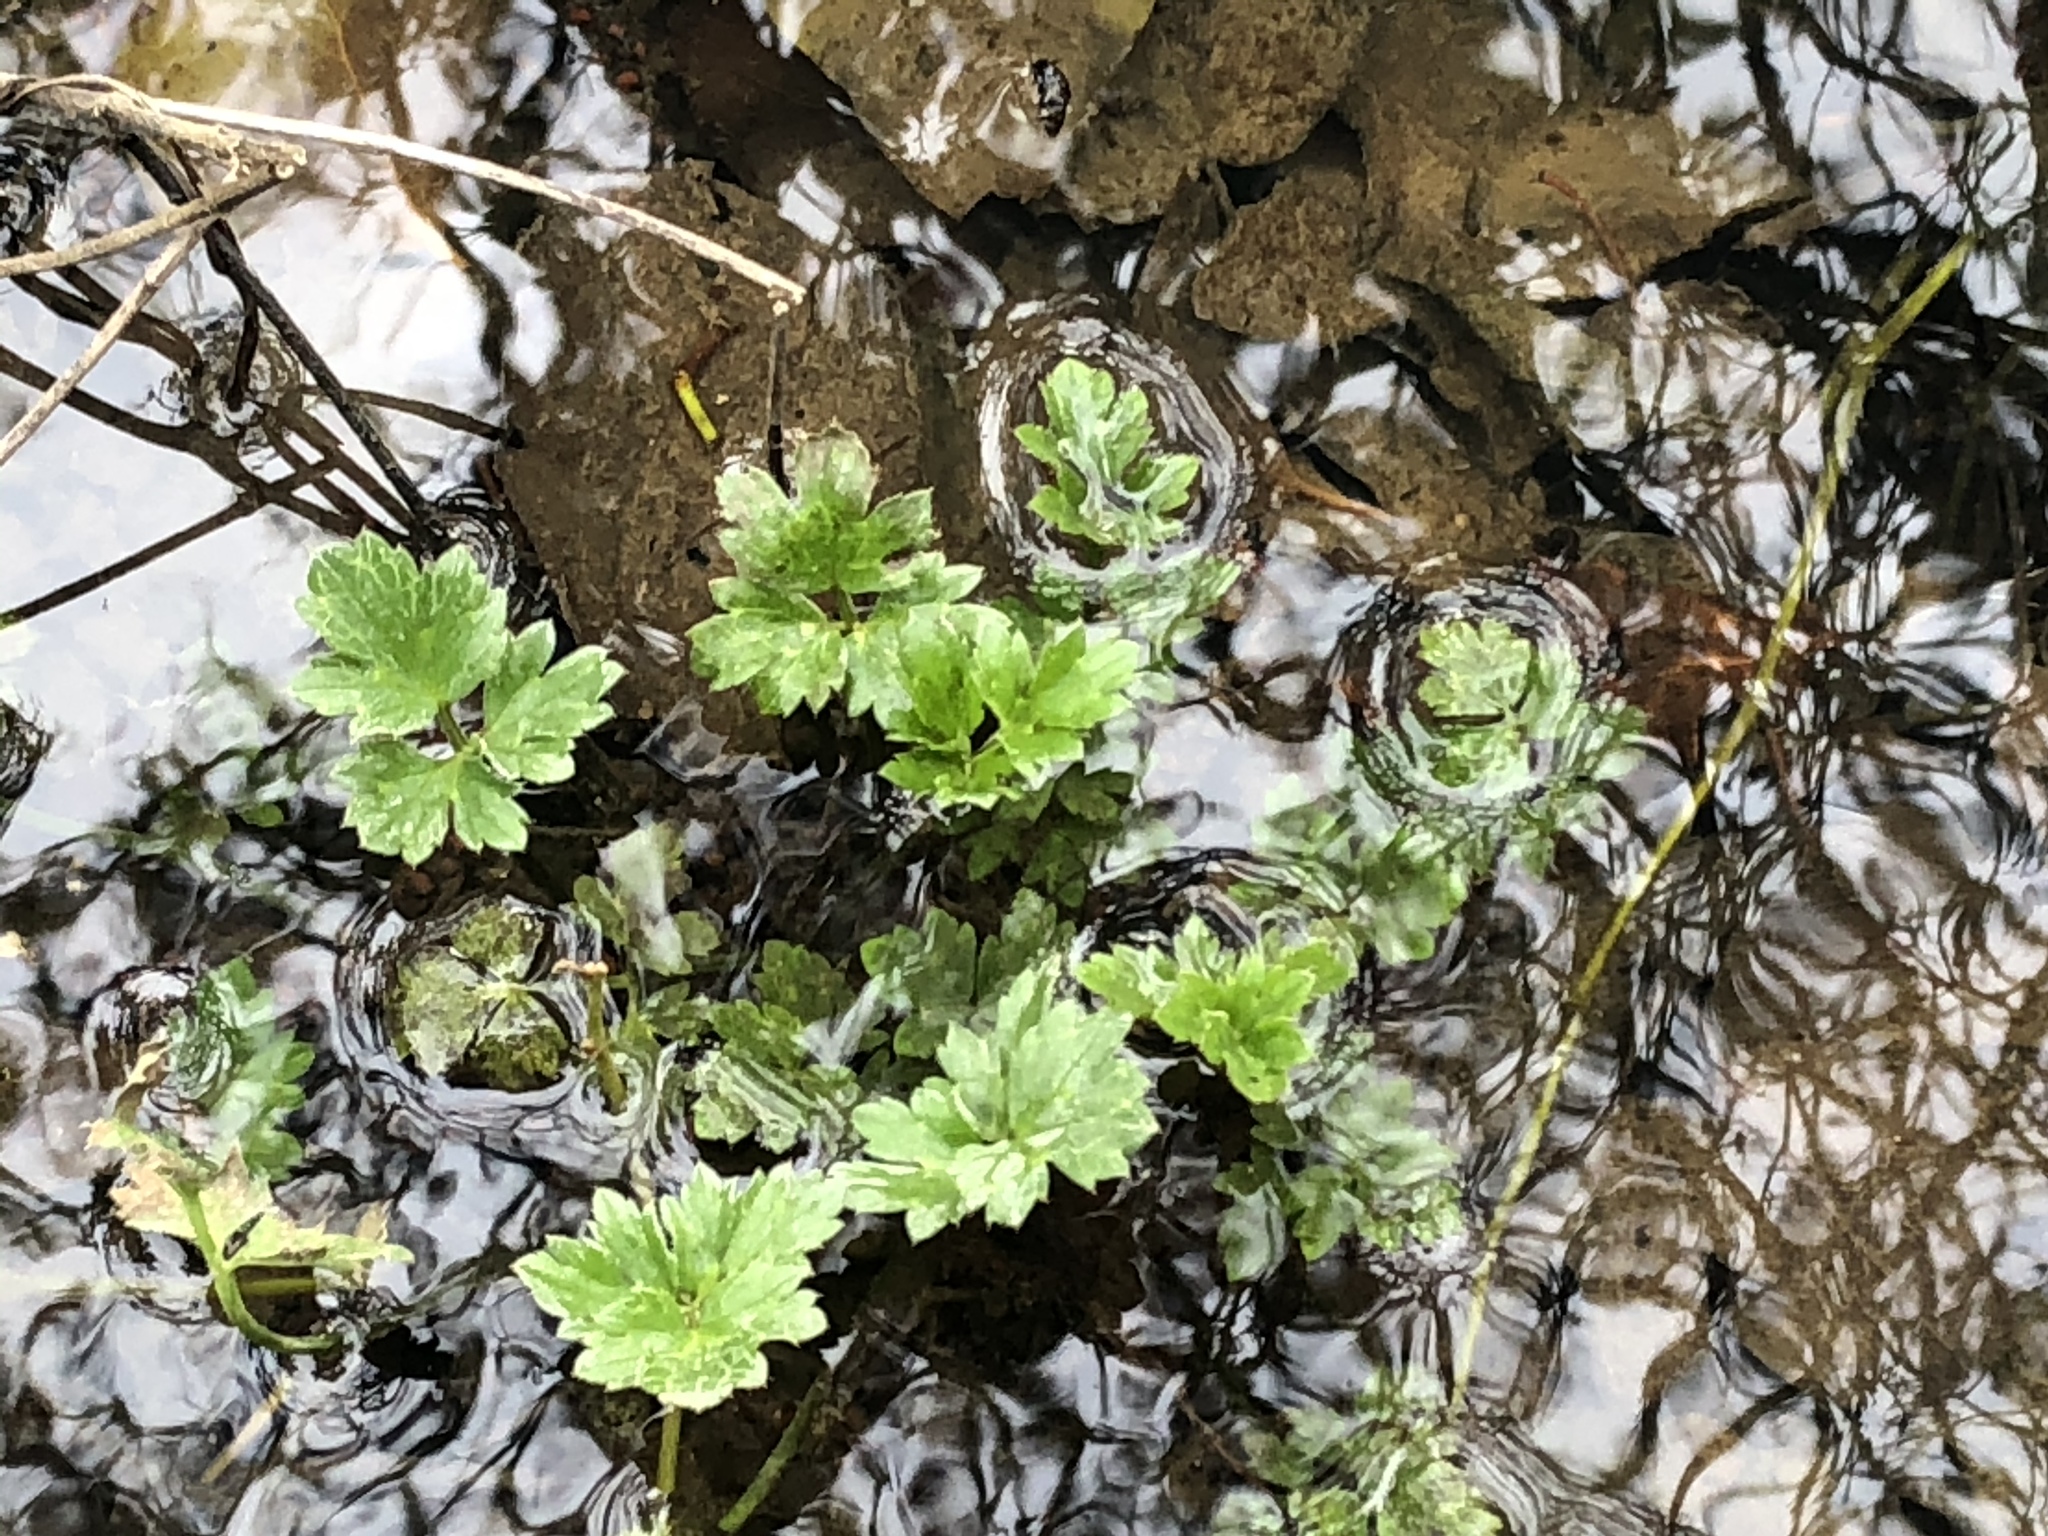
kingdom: Plantae
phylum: Tracheophyta
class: Magnoliopsida
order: Ranunculales
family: Ranunculaceae
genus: Ranunculus
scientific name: Ranunculus repens
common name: Creeping buttercup
